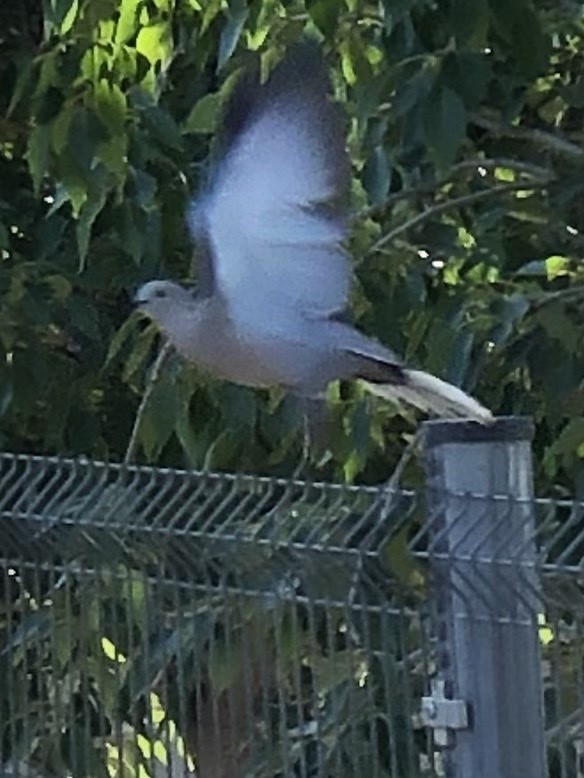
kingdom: Animalia
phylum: Chordata
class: Aves
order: Columbiformes
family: Columbidae
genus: Streptopelia
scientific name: Streptopelia decaocto
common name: Eurasian collared dove
